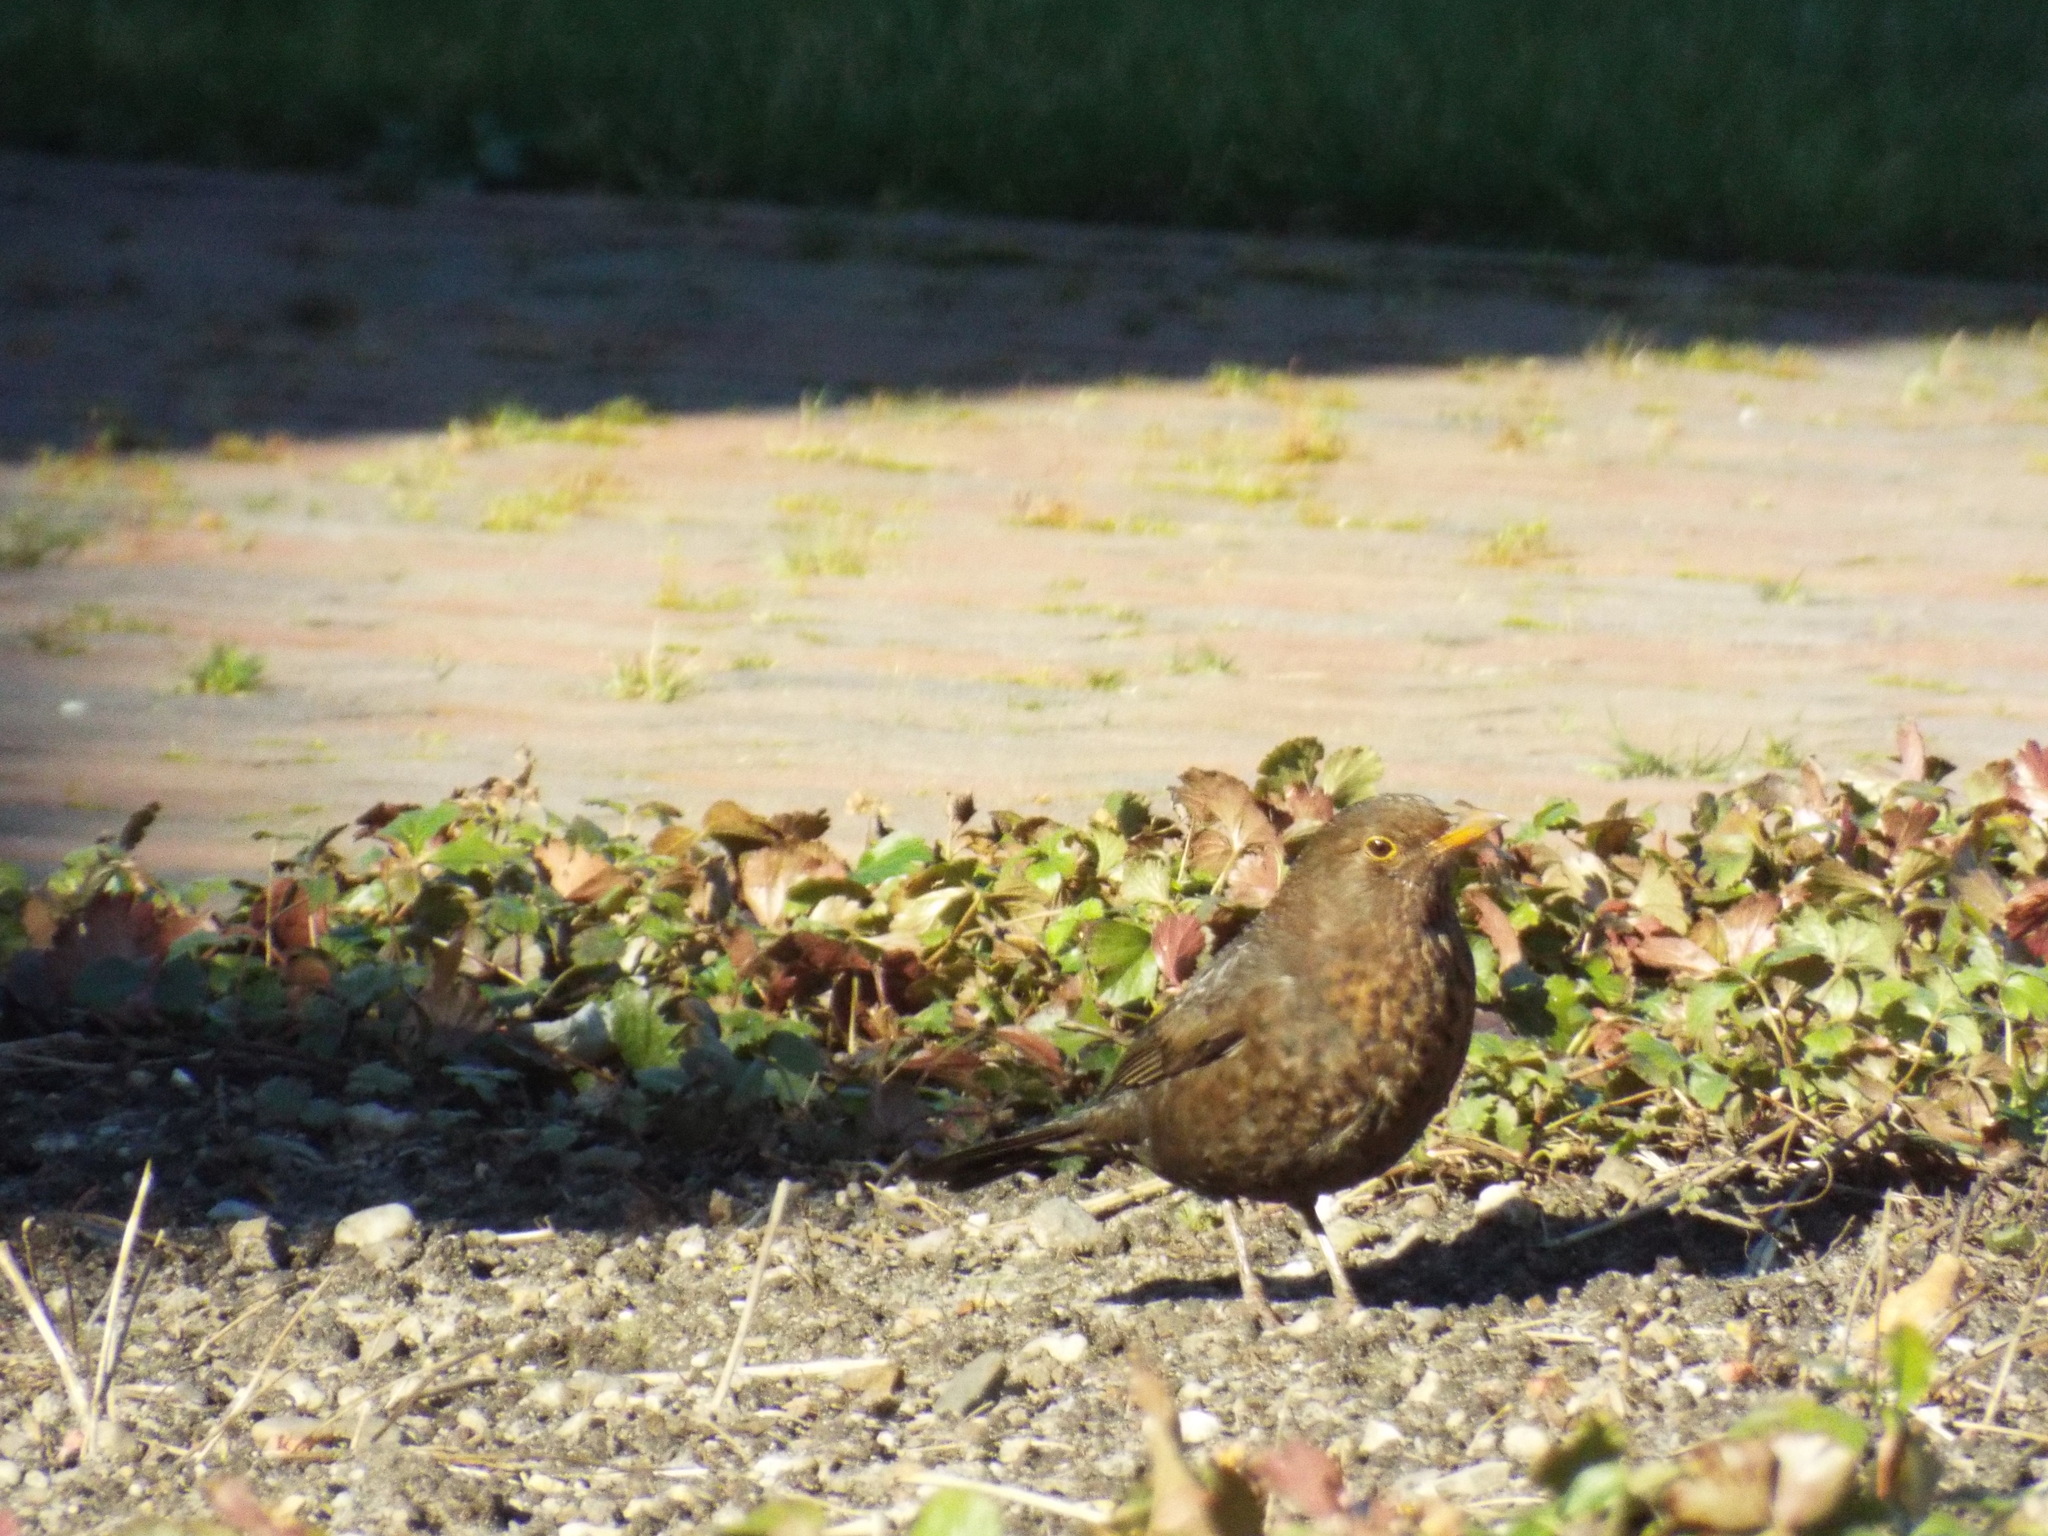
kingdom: Animalia
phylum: Chordata
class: Aves
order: Passeriformes
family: Turdidae
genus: Turdus
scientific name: Turdus merula
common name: Common blackbird
